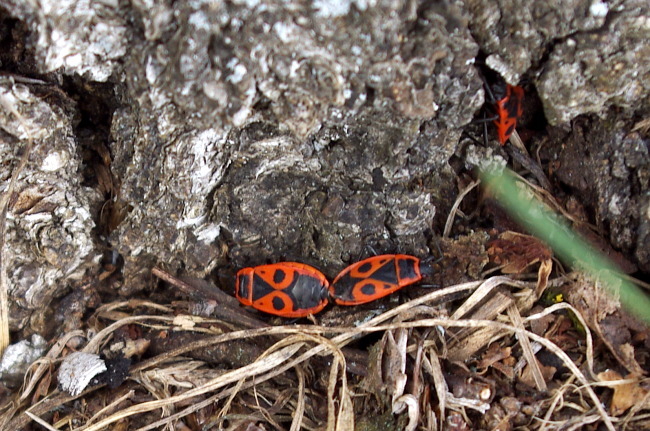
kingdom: Animalia
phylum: Arthropoda
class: Insecta
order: Hemiptera
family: Pyrrhocoridae
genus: Pyrrhocoris
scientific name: Pyrrhocoris apterus
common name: Firebug
